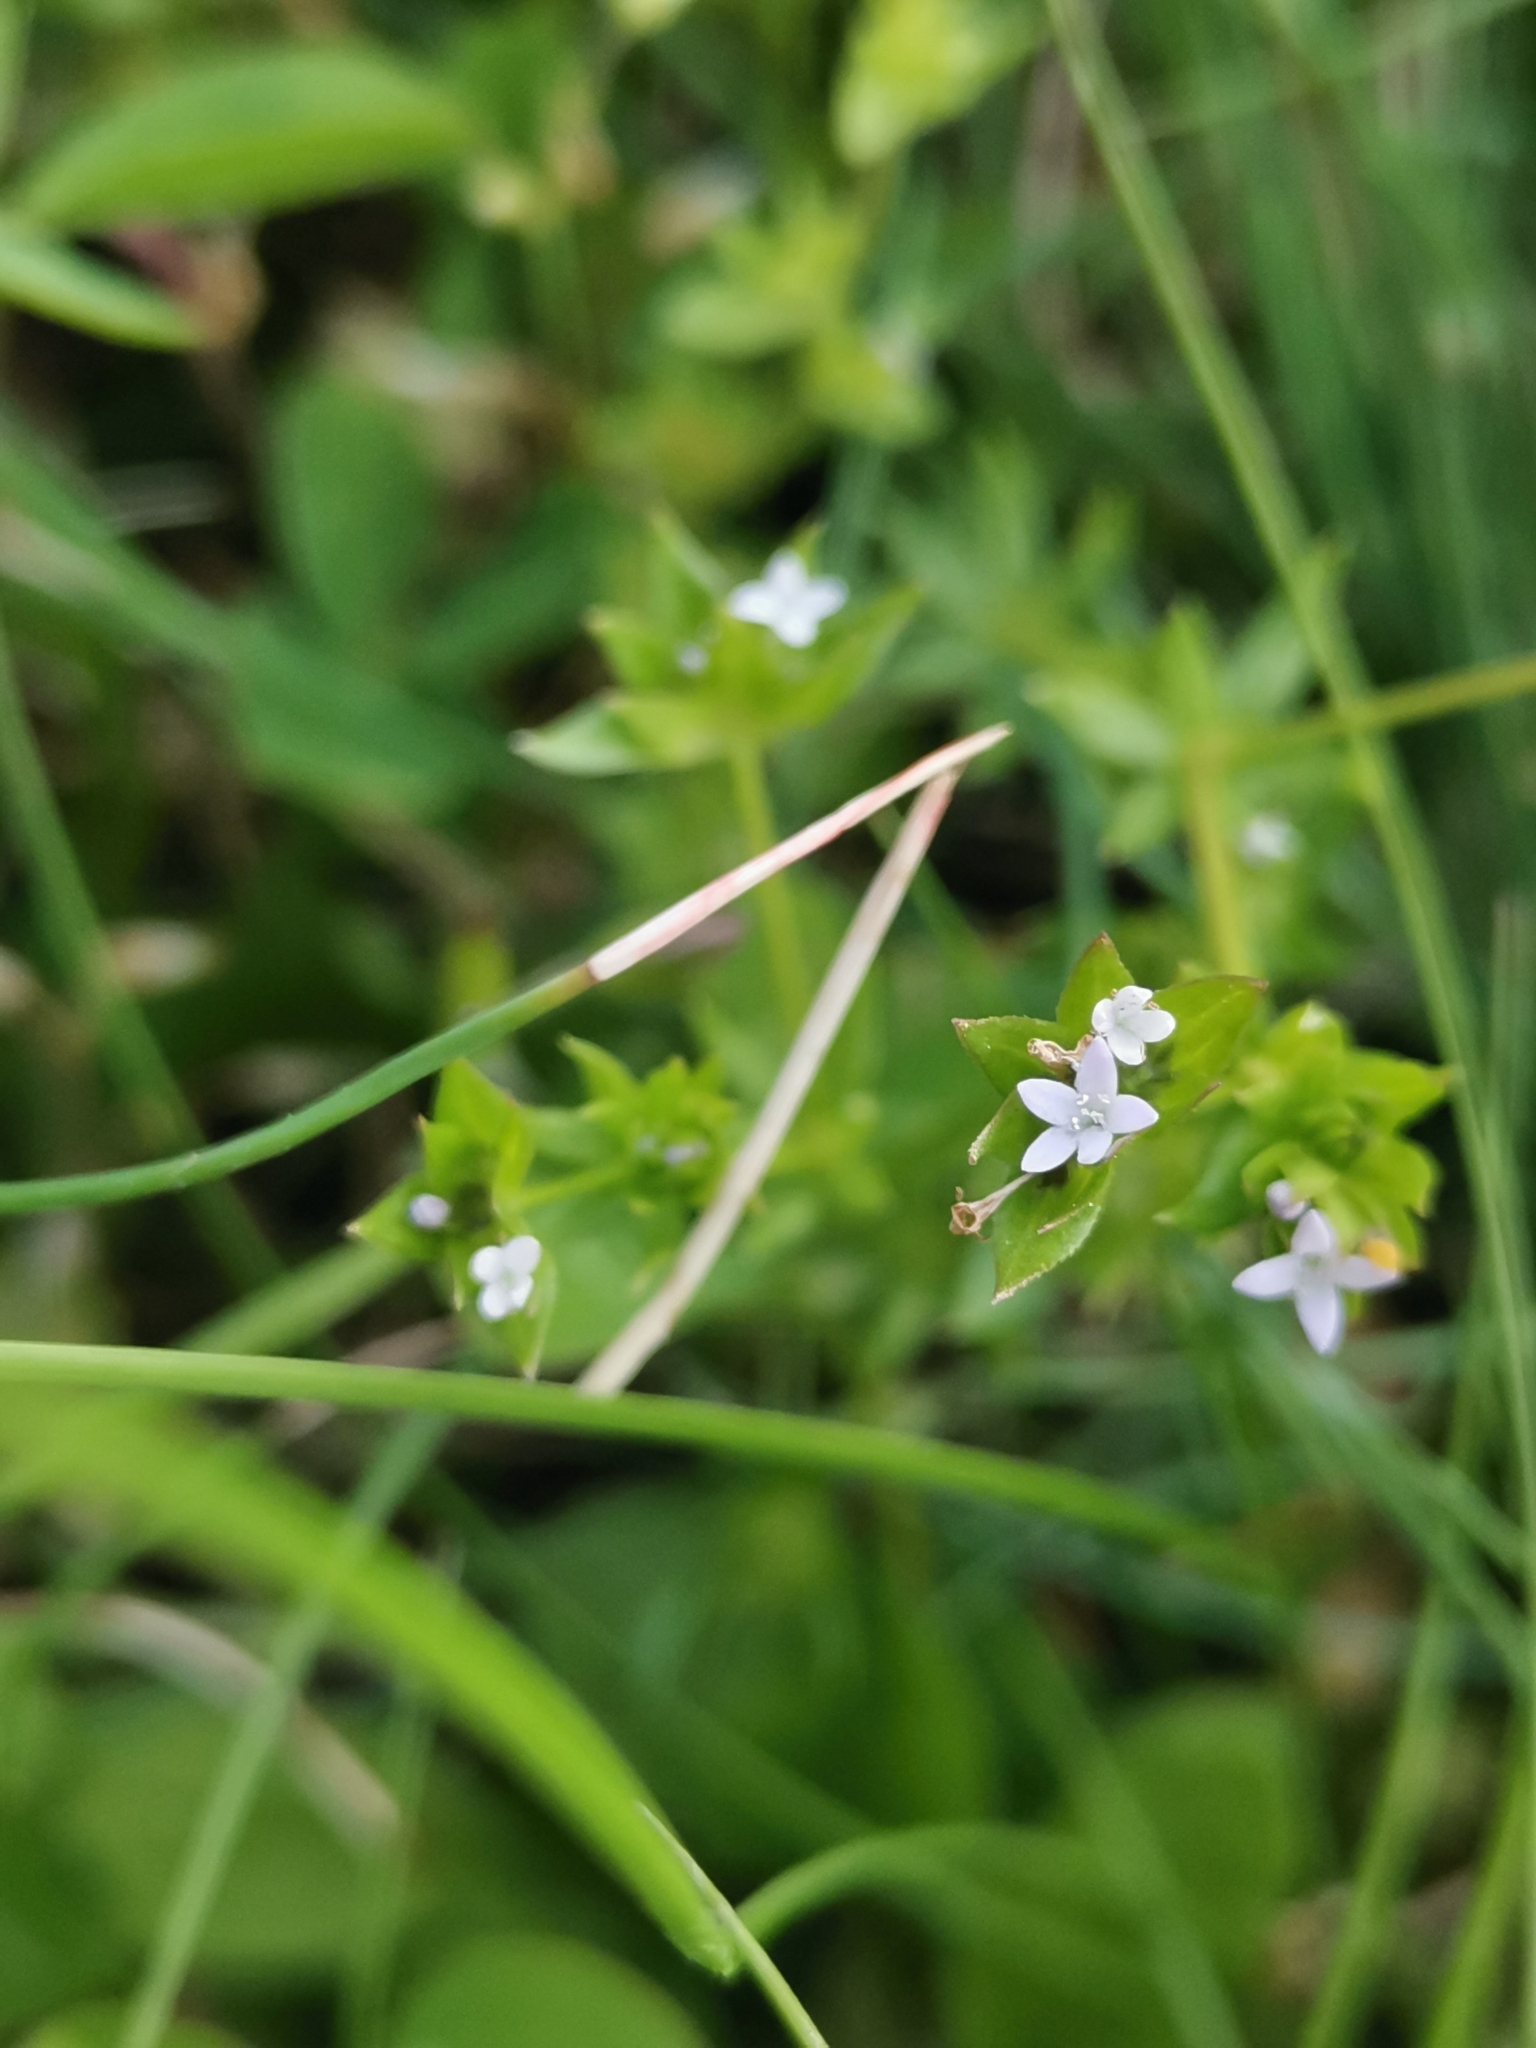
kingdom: Plantae
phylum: Tracheophyta
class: Magnoliopsida
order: Gentianales
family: Rubiaceae
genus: Sherardia
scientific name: Sherardia arvensis
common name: Field madder
